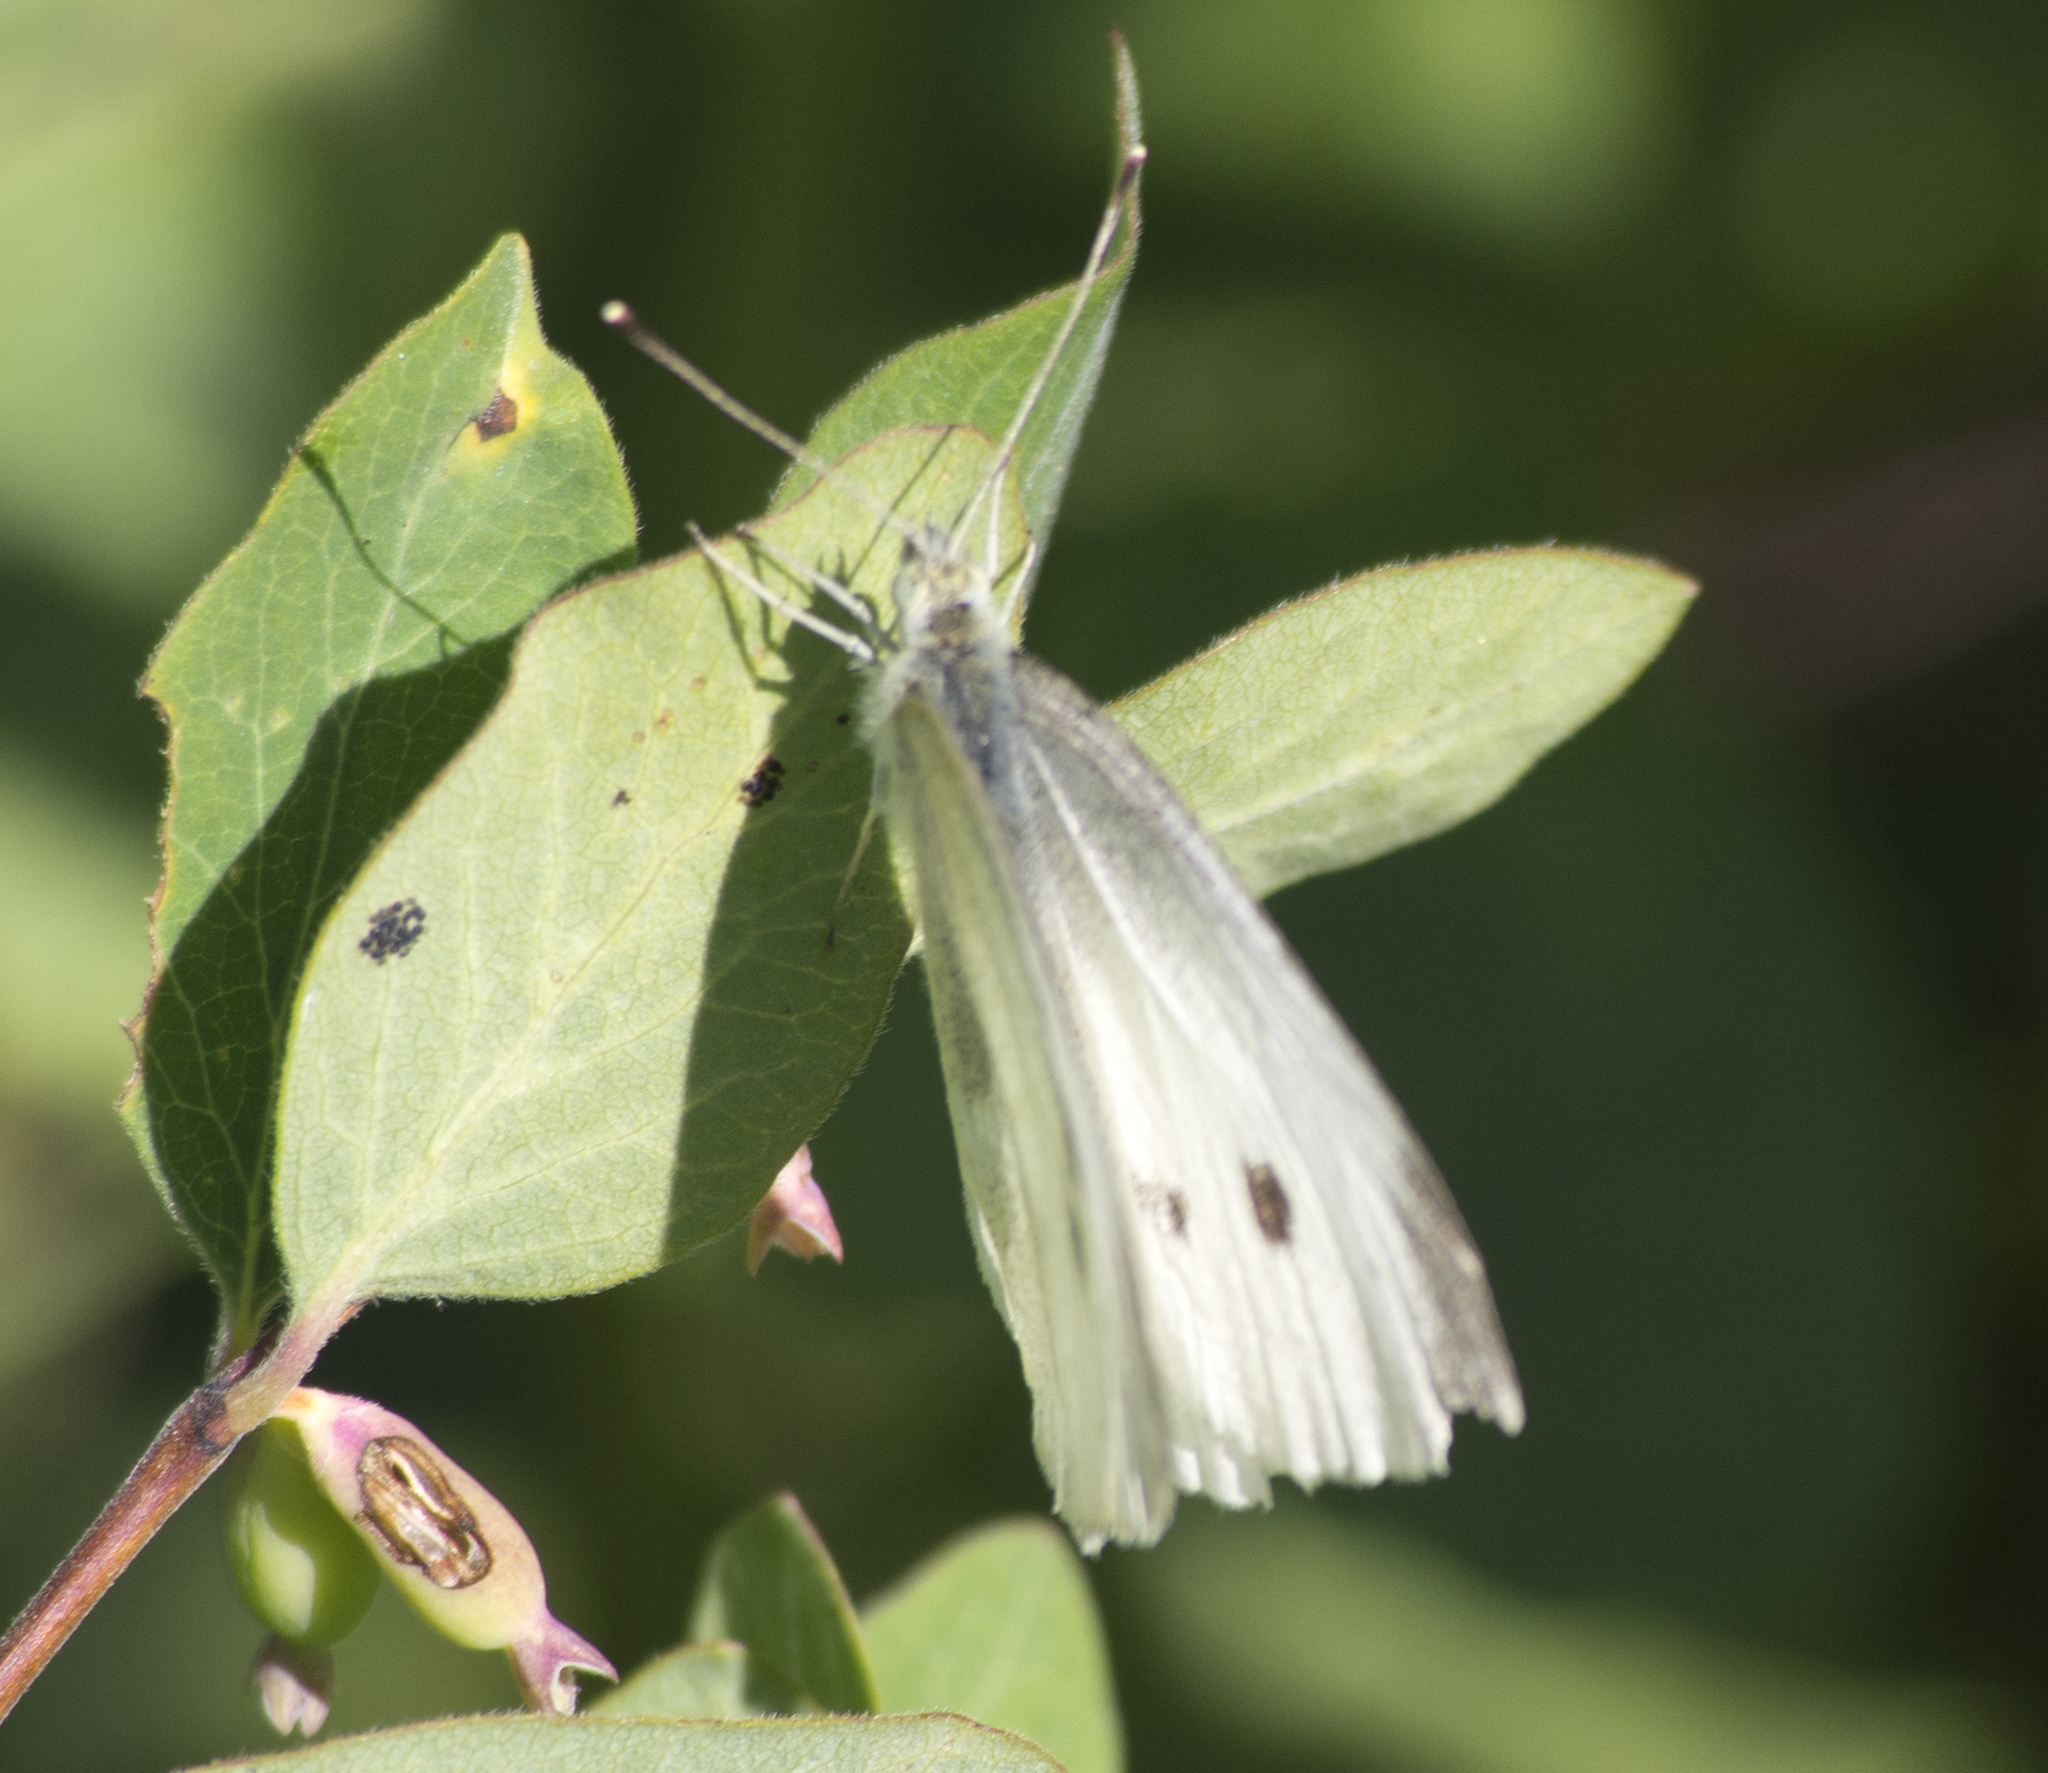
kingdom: Animalia
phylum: Arthropoda
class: Insecta
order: Lepidoptera
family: Pieridae
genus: Pieris
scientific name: Pieris rapae
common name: Small white
